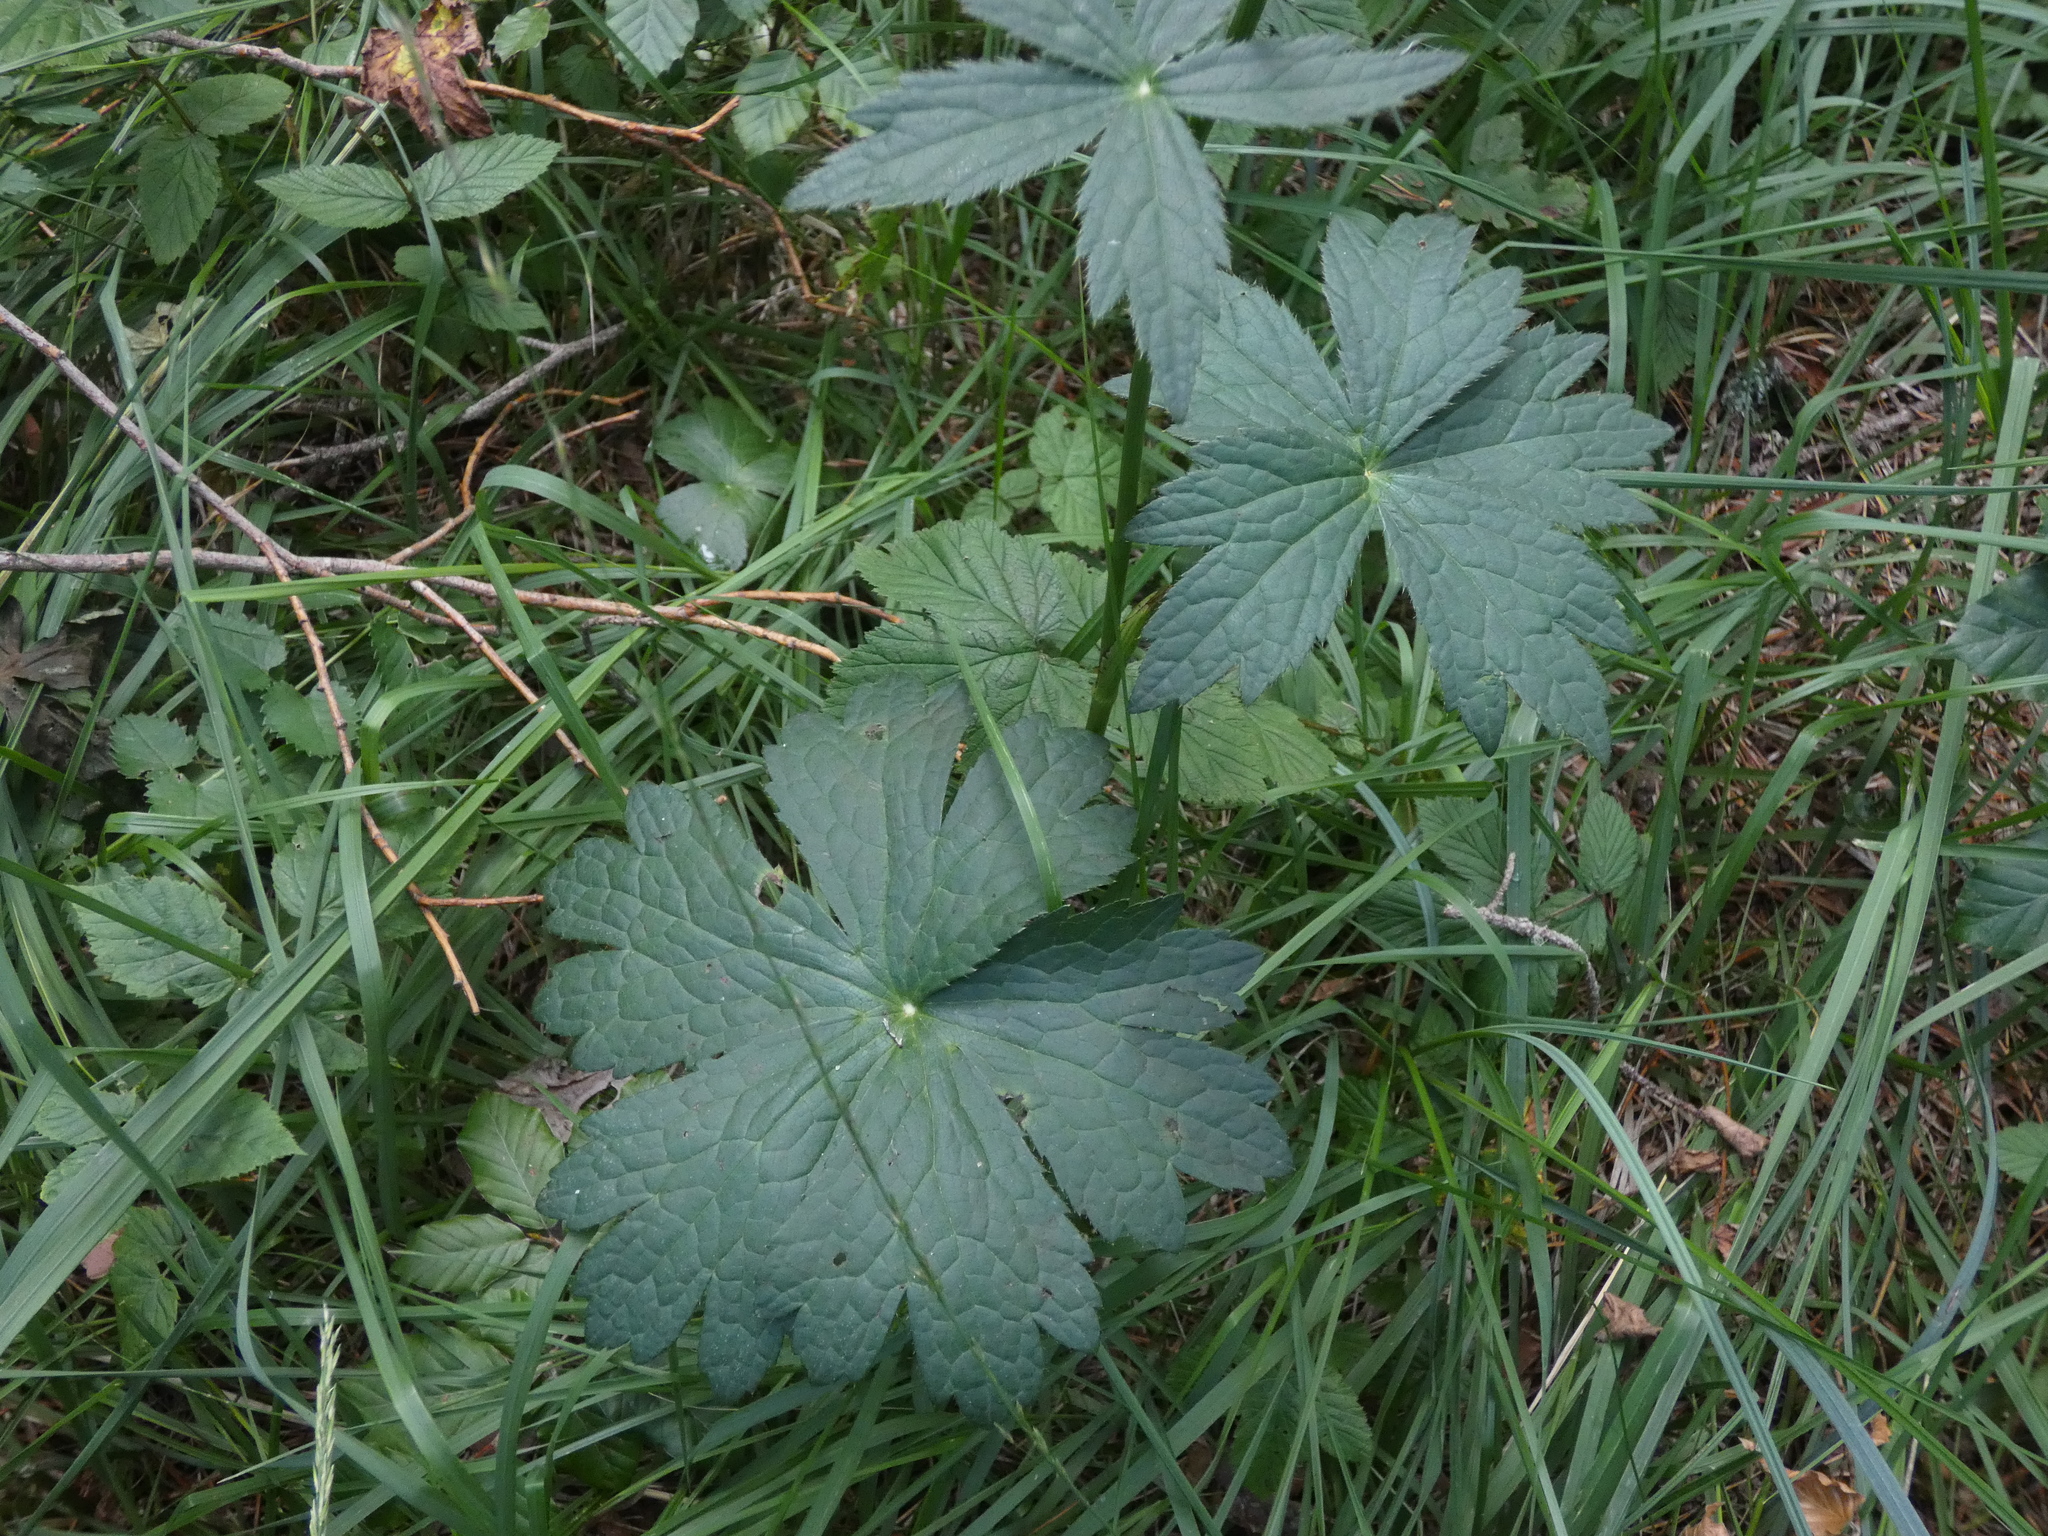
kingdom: Plantae
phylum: Tracheophyta
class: Magnoliopsida
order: Apiales
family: Apiaceae
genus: Astrantia
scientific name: Astrantia major
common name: Greater masterwort
